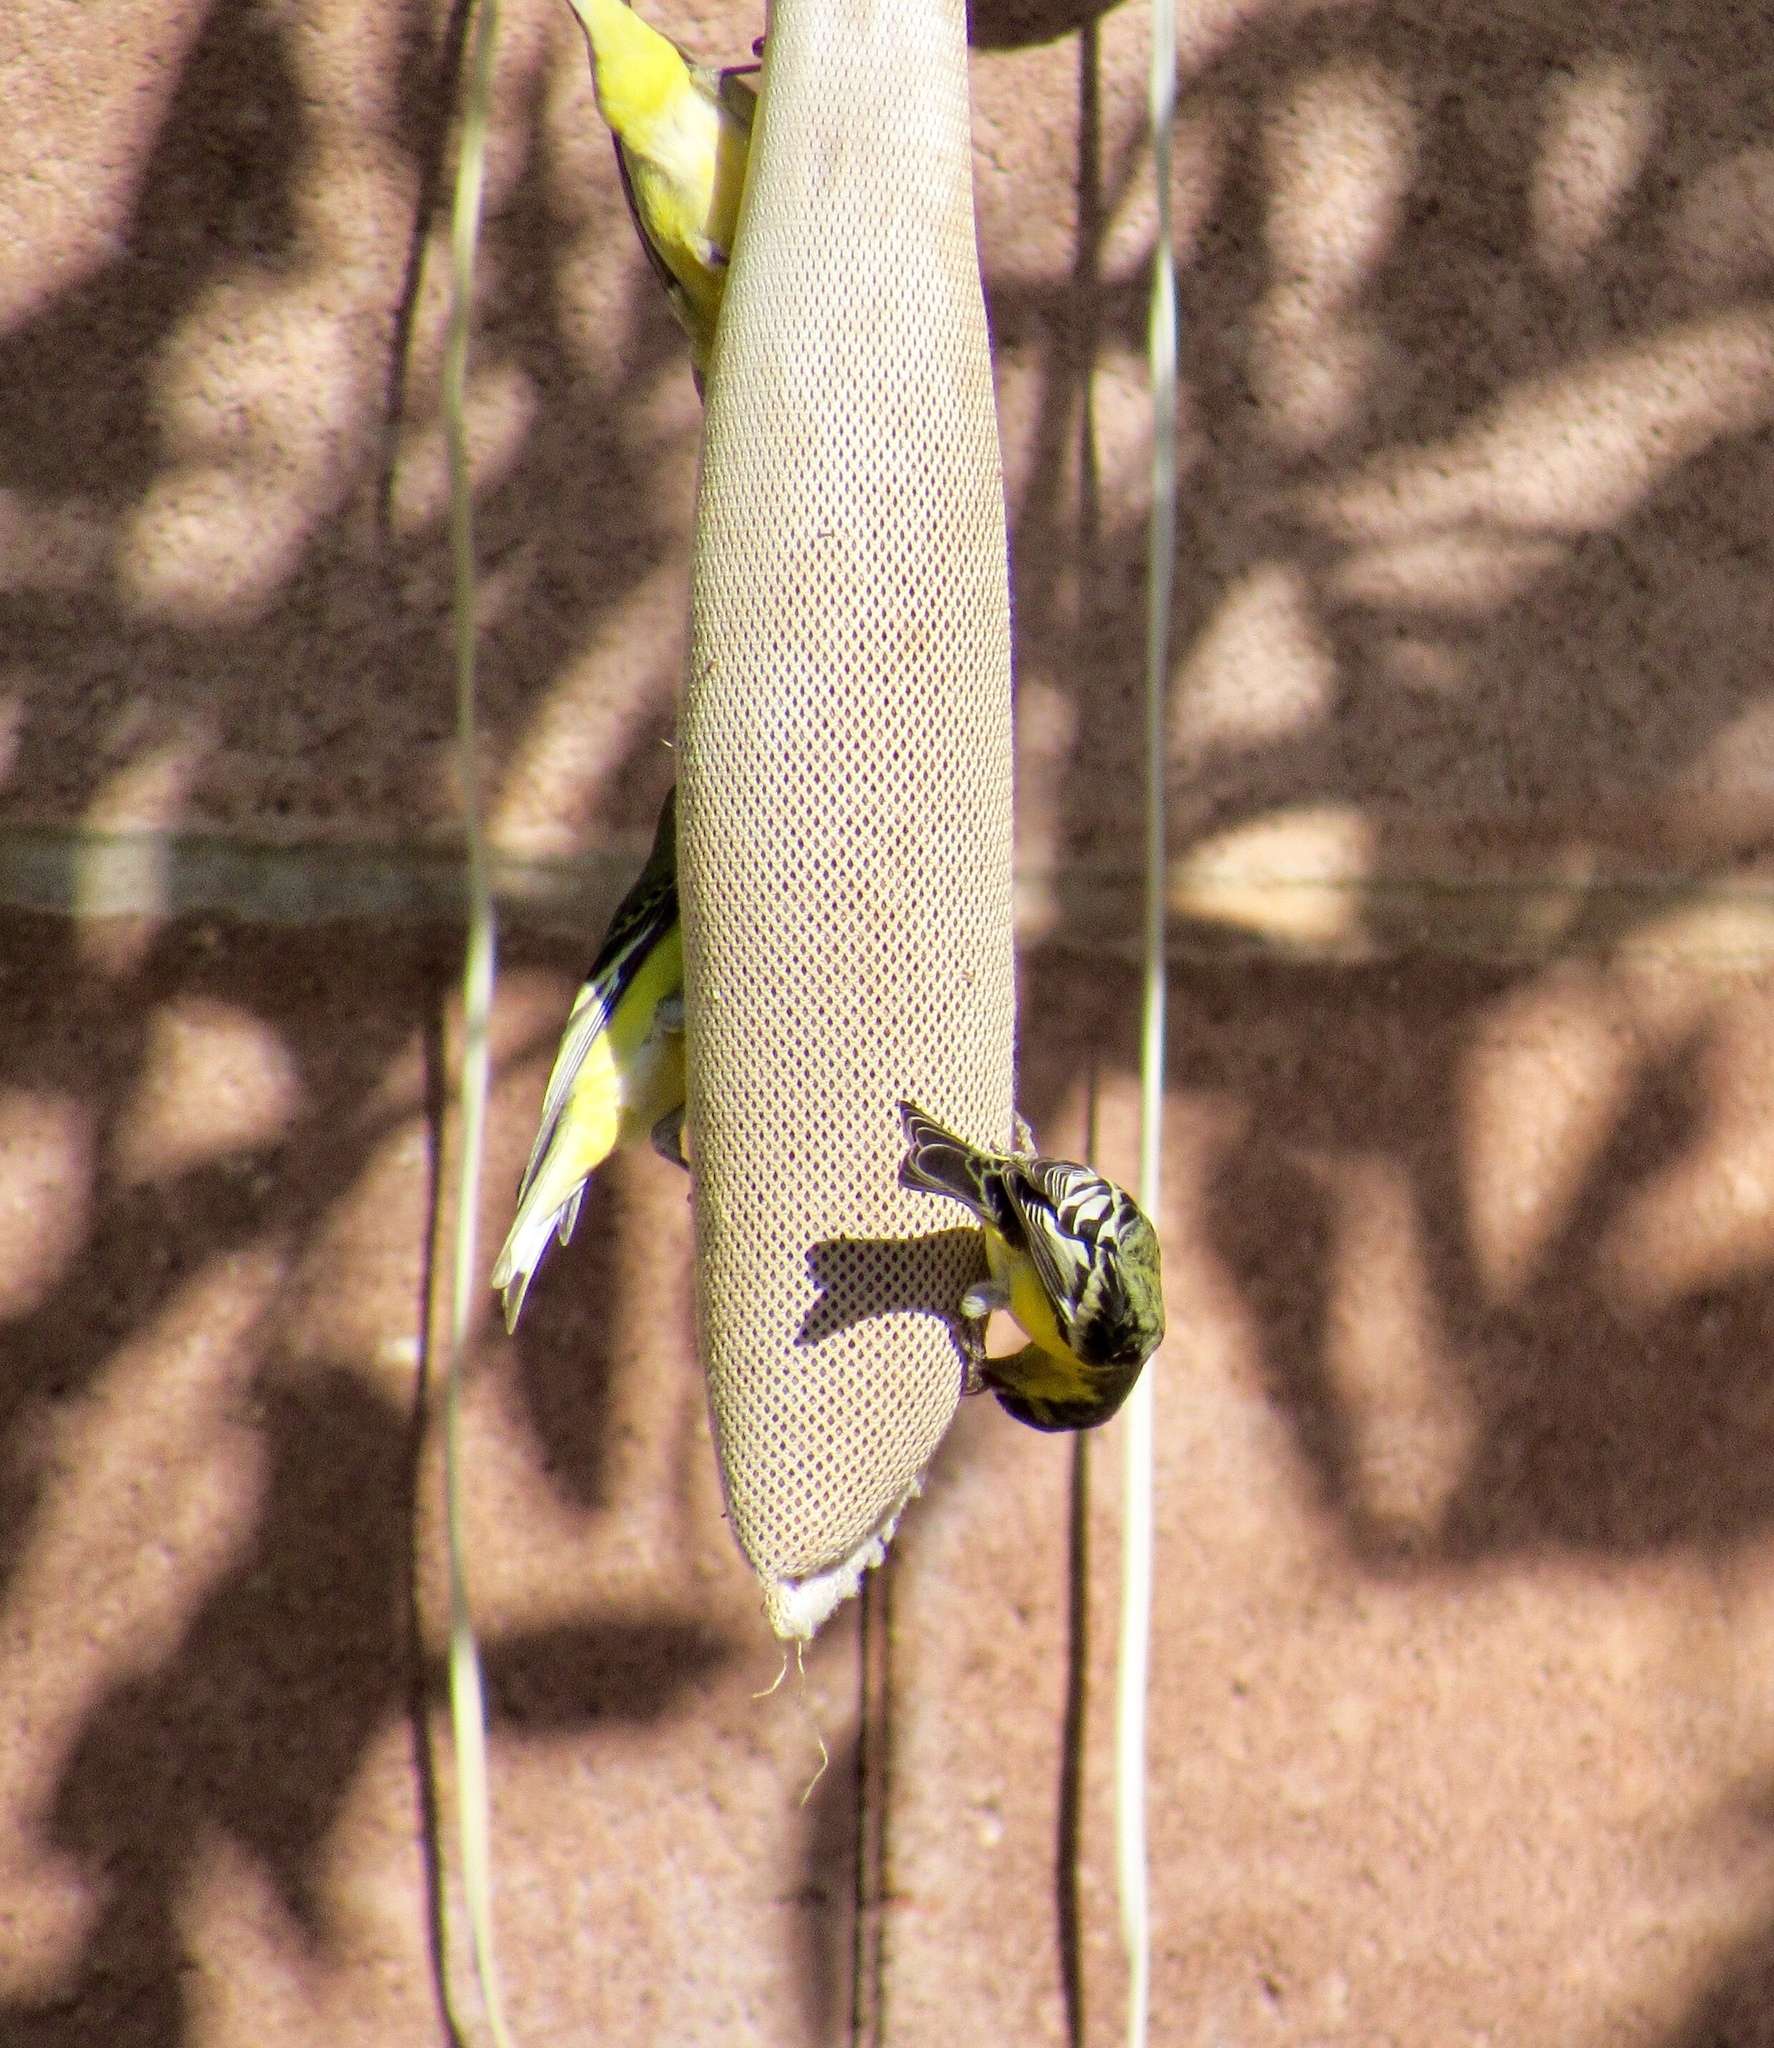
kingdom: Animalia
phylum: Chordata
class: Aves
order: Passeriformes
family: Fringillidae
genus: Spinus
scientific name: Spinus psaltria
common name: Lesser goldfinch
